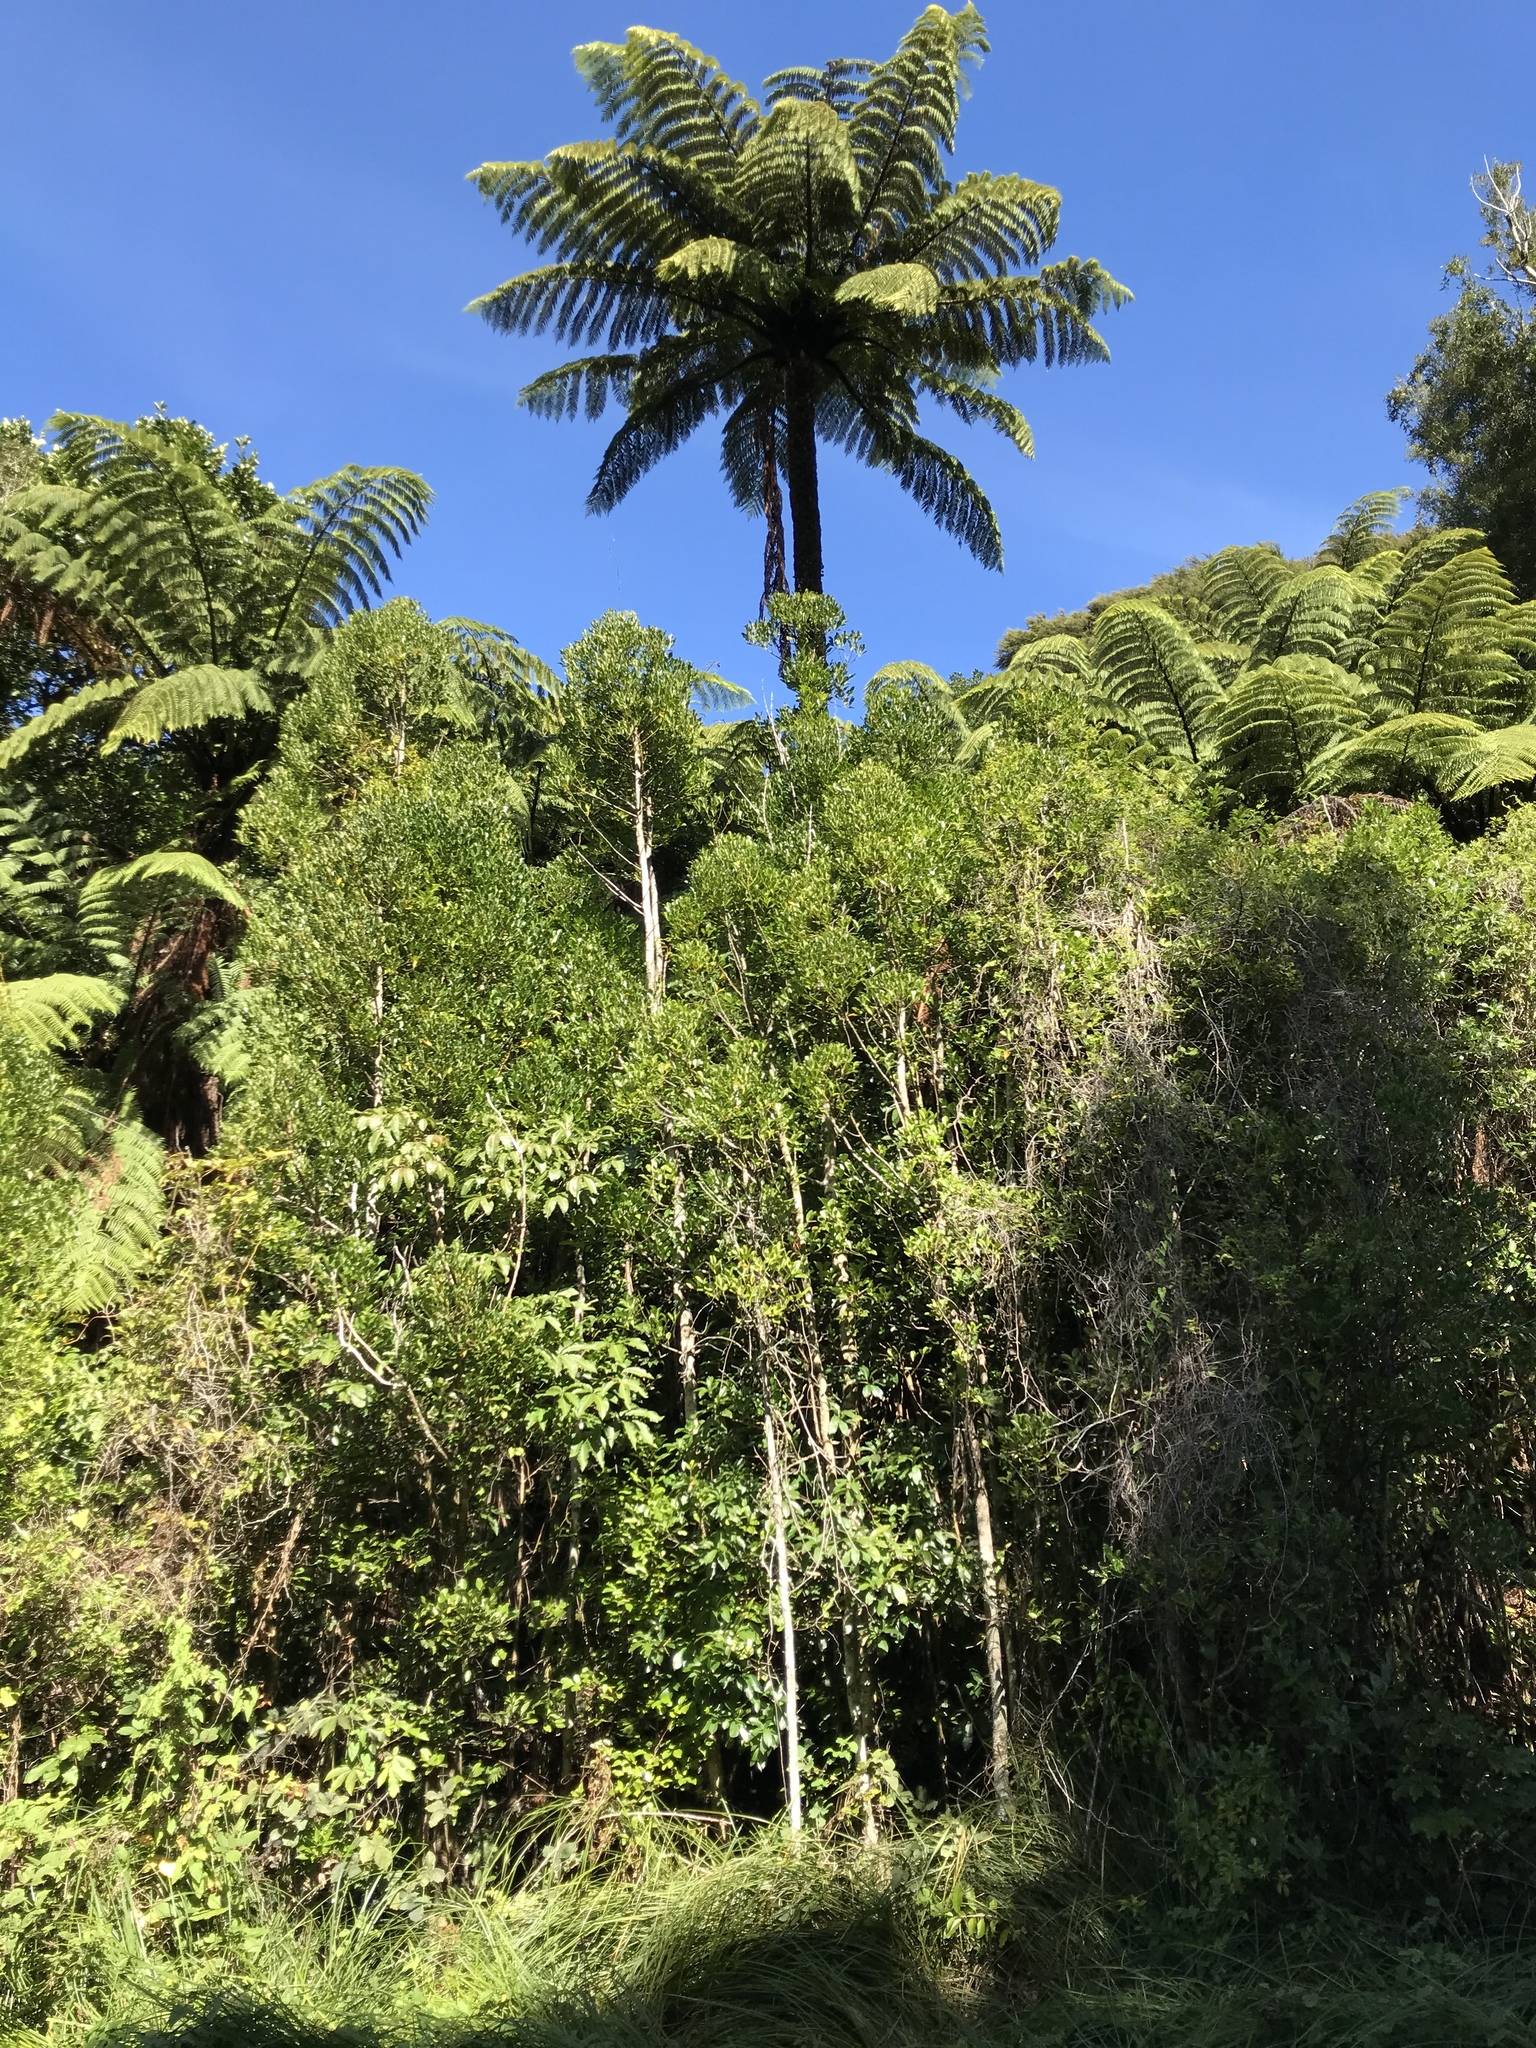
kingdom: Plantae
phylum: Tracheophyta
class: Magnoliopsida
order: Laurales
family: Atherospermataceae
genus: Laurelia
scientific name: Laurelia novae-zelandiae
